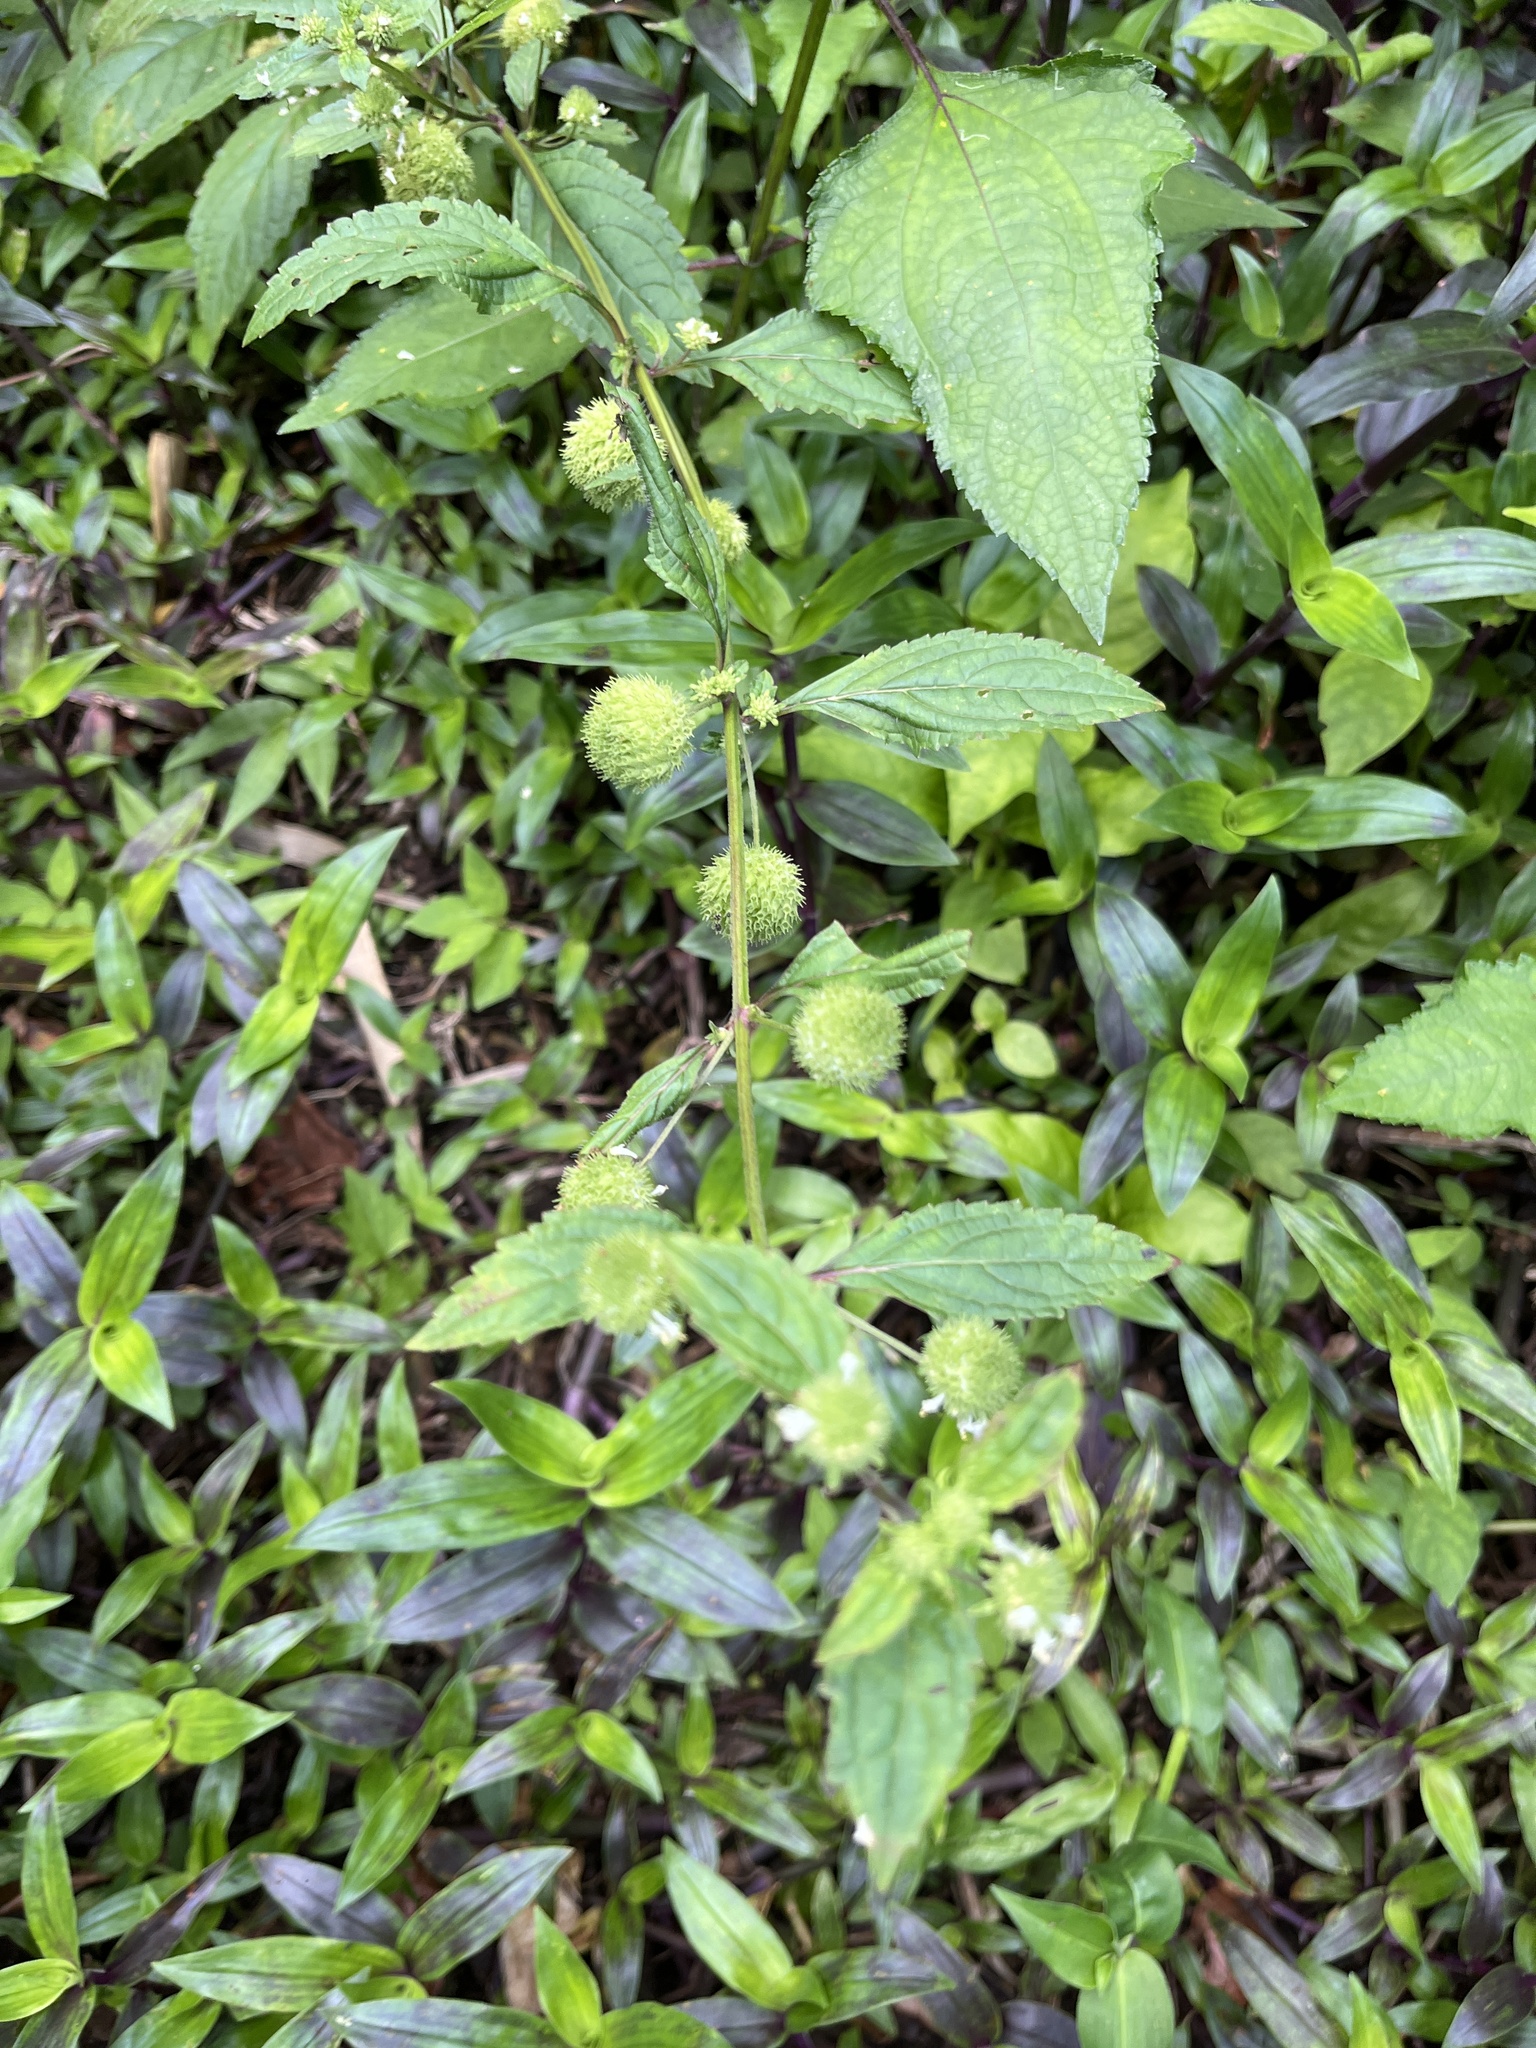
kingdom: Plantae
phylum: Tracheophyta
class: Magnoliopsida
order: Lamiales
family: Lamiaceae
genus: Hyptis
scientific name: Hyptis capitata
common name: False ironwort
